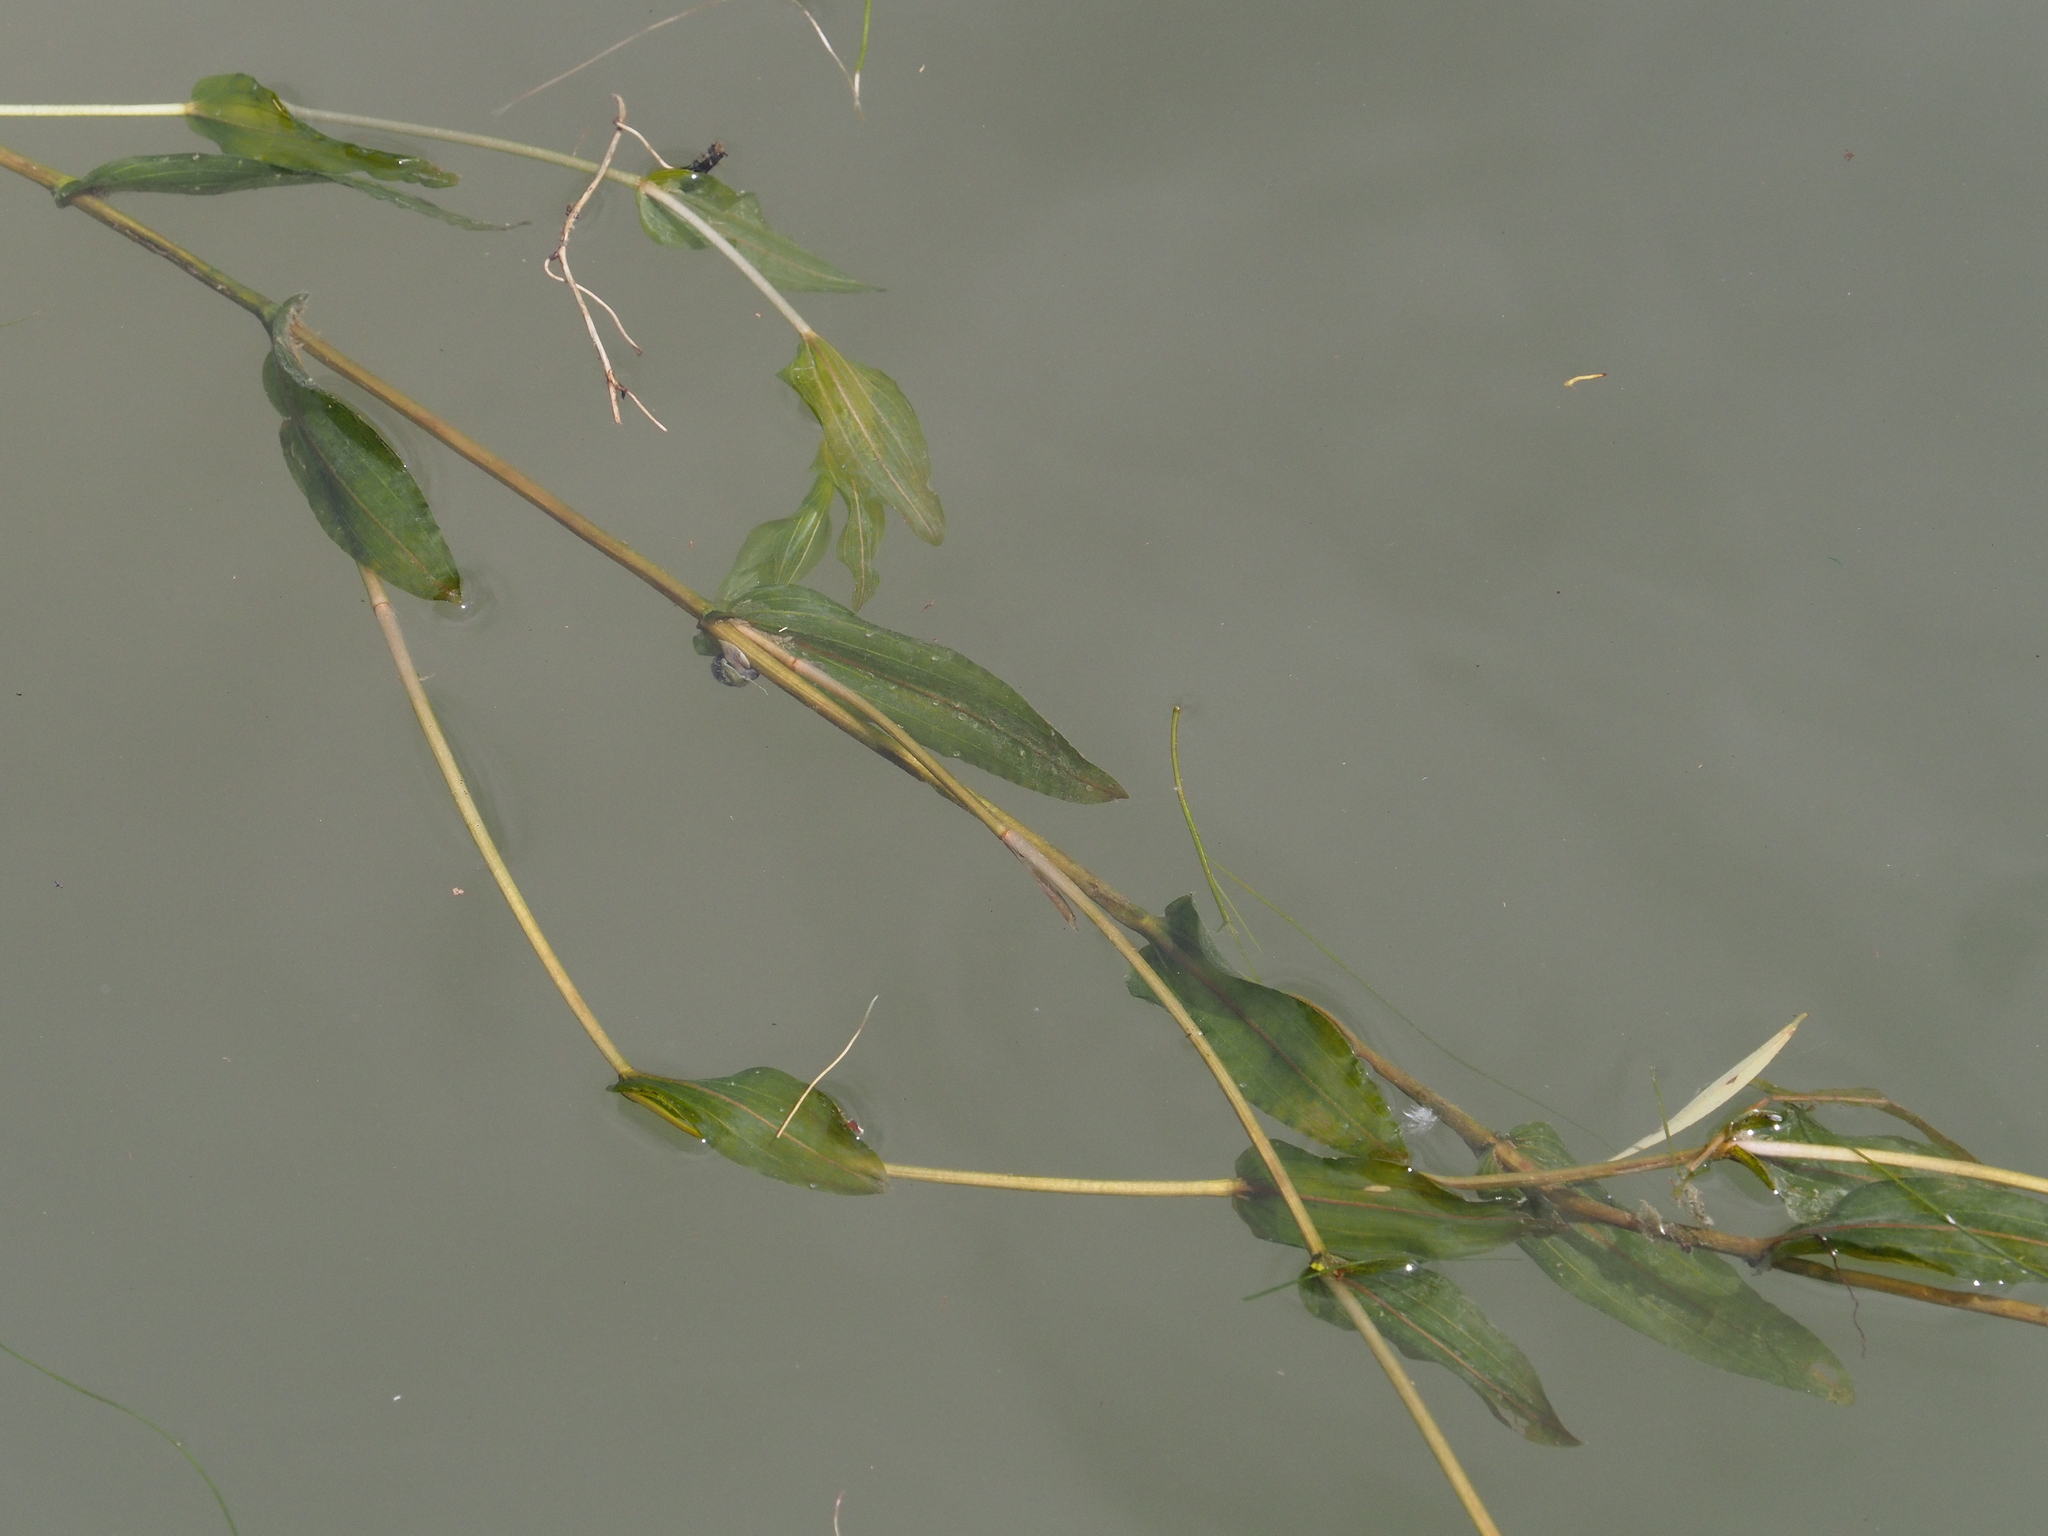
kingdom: Plantae
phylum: Tracheophyta
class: Liliopsida
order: Alismatales
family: Potamogetonaceae
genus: Potamogeton
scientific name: Potamogeton perfoliatus
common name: Perfoliate pondweed
